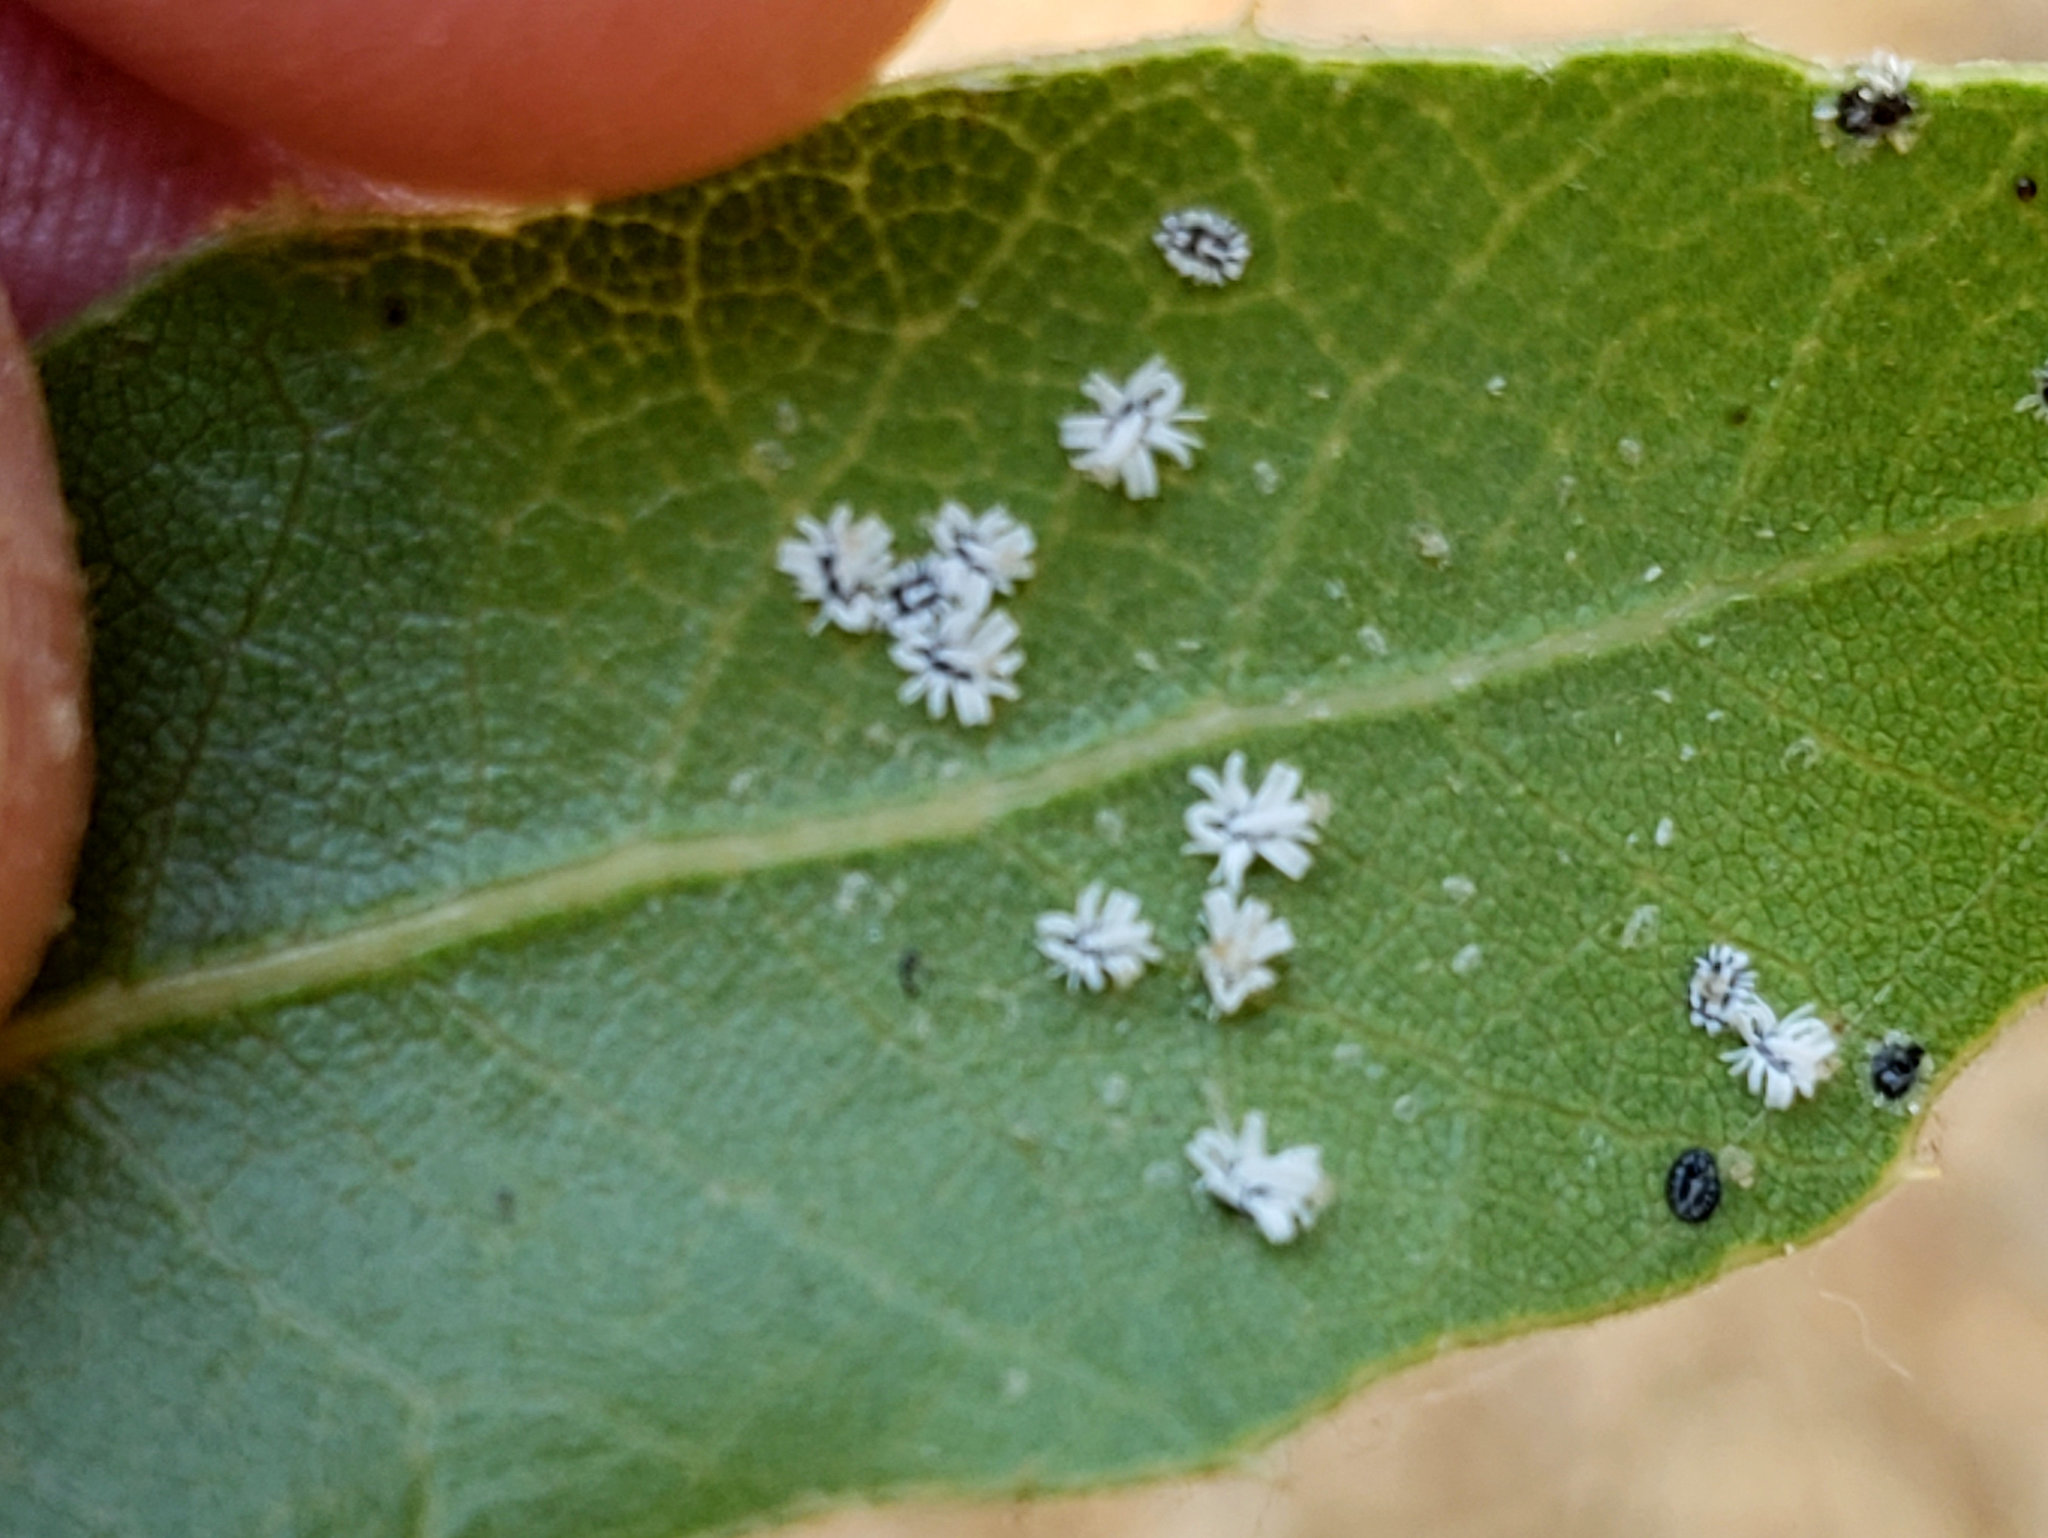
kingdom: Animalia
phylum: Arthropoda
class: Insecta
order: Hemiptera
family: Aleyrodidae
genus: Aleuroplatus
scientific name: Aleuroplatus coronata
